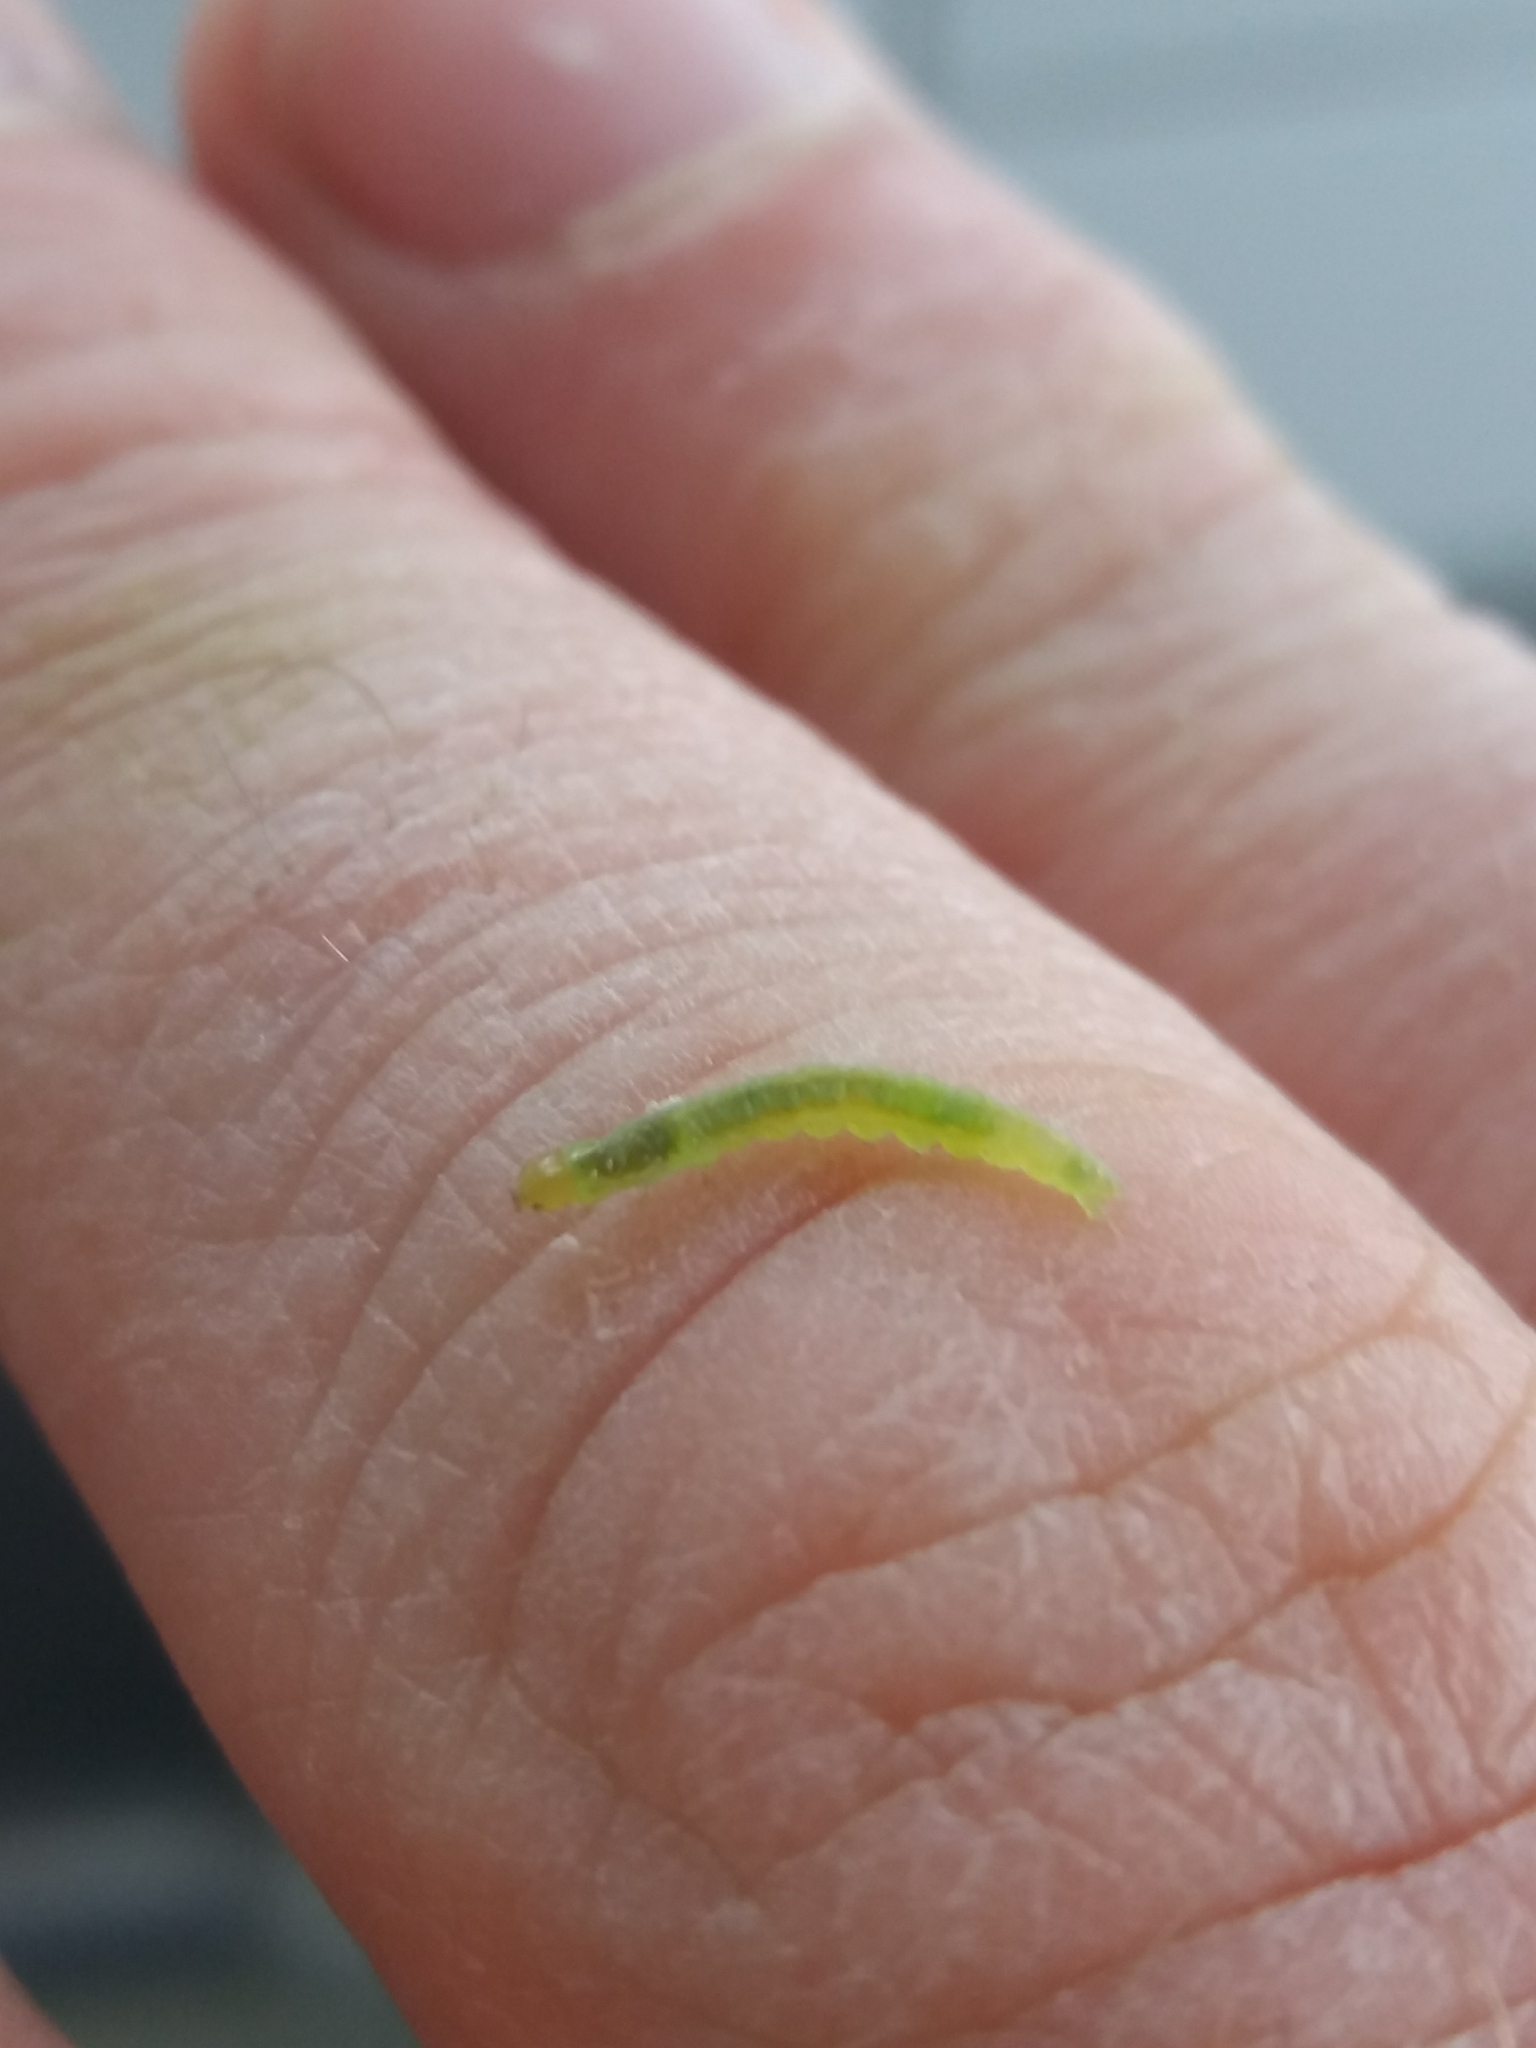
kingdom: Animalia
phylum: Arthropoda
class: Insecta
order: Lepidoptera
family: Geometridae
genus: Cleora
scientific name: Cleora scriptaria
